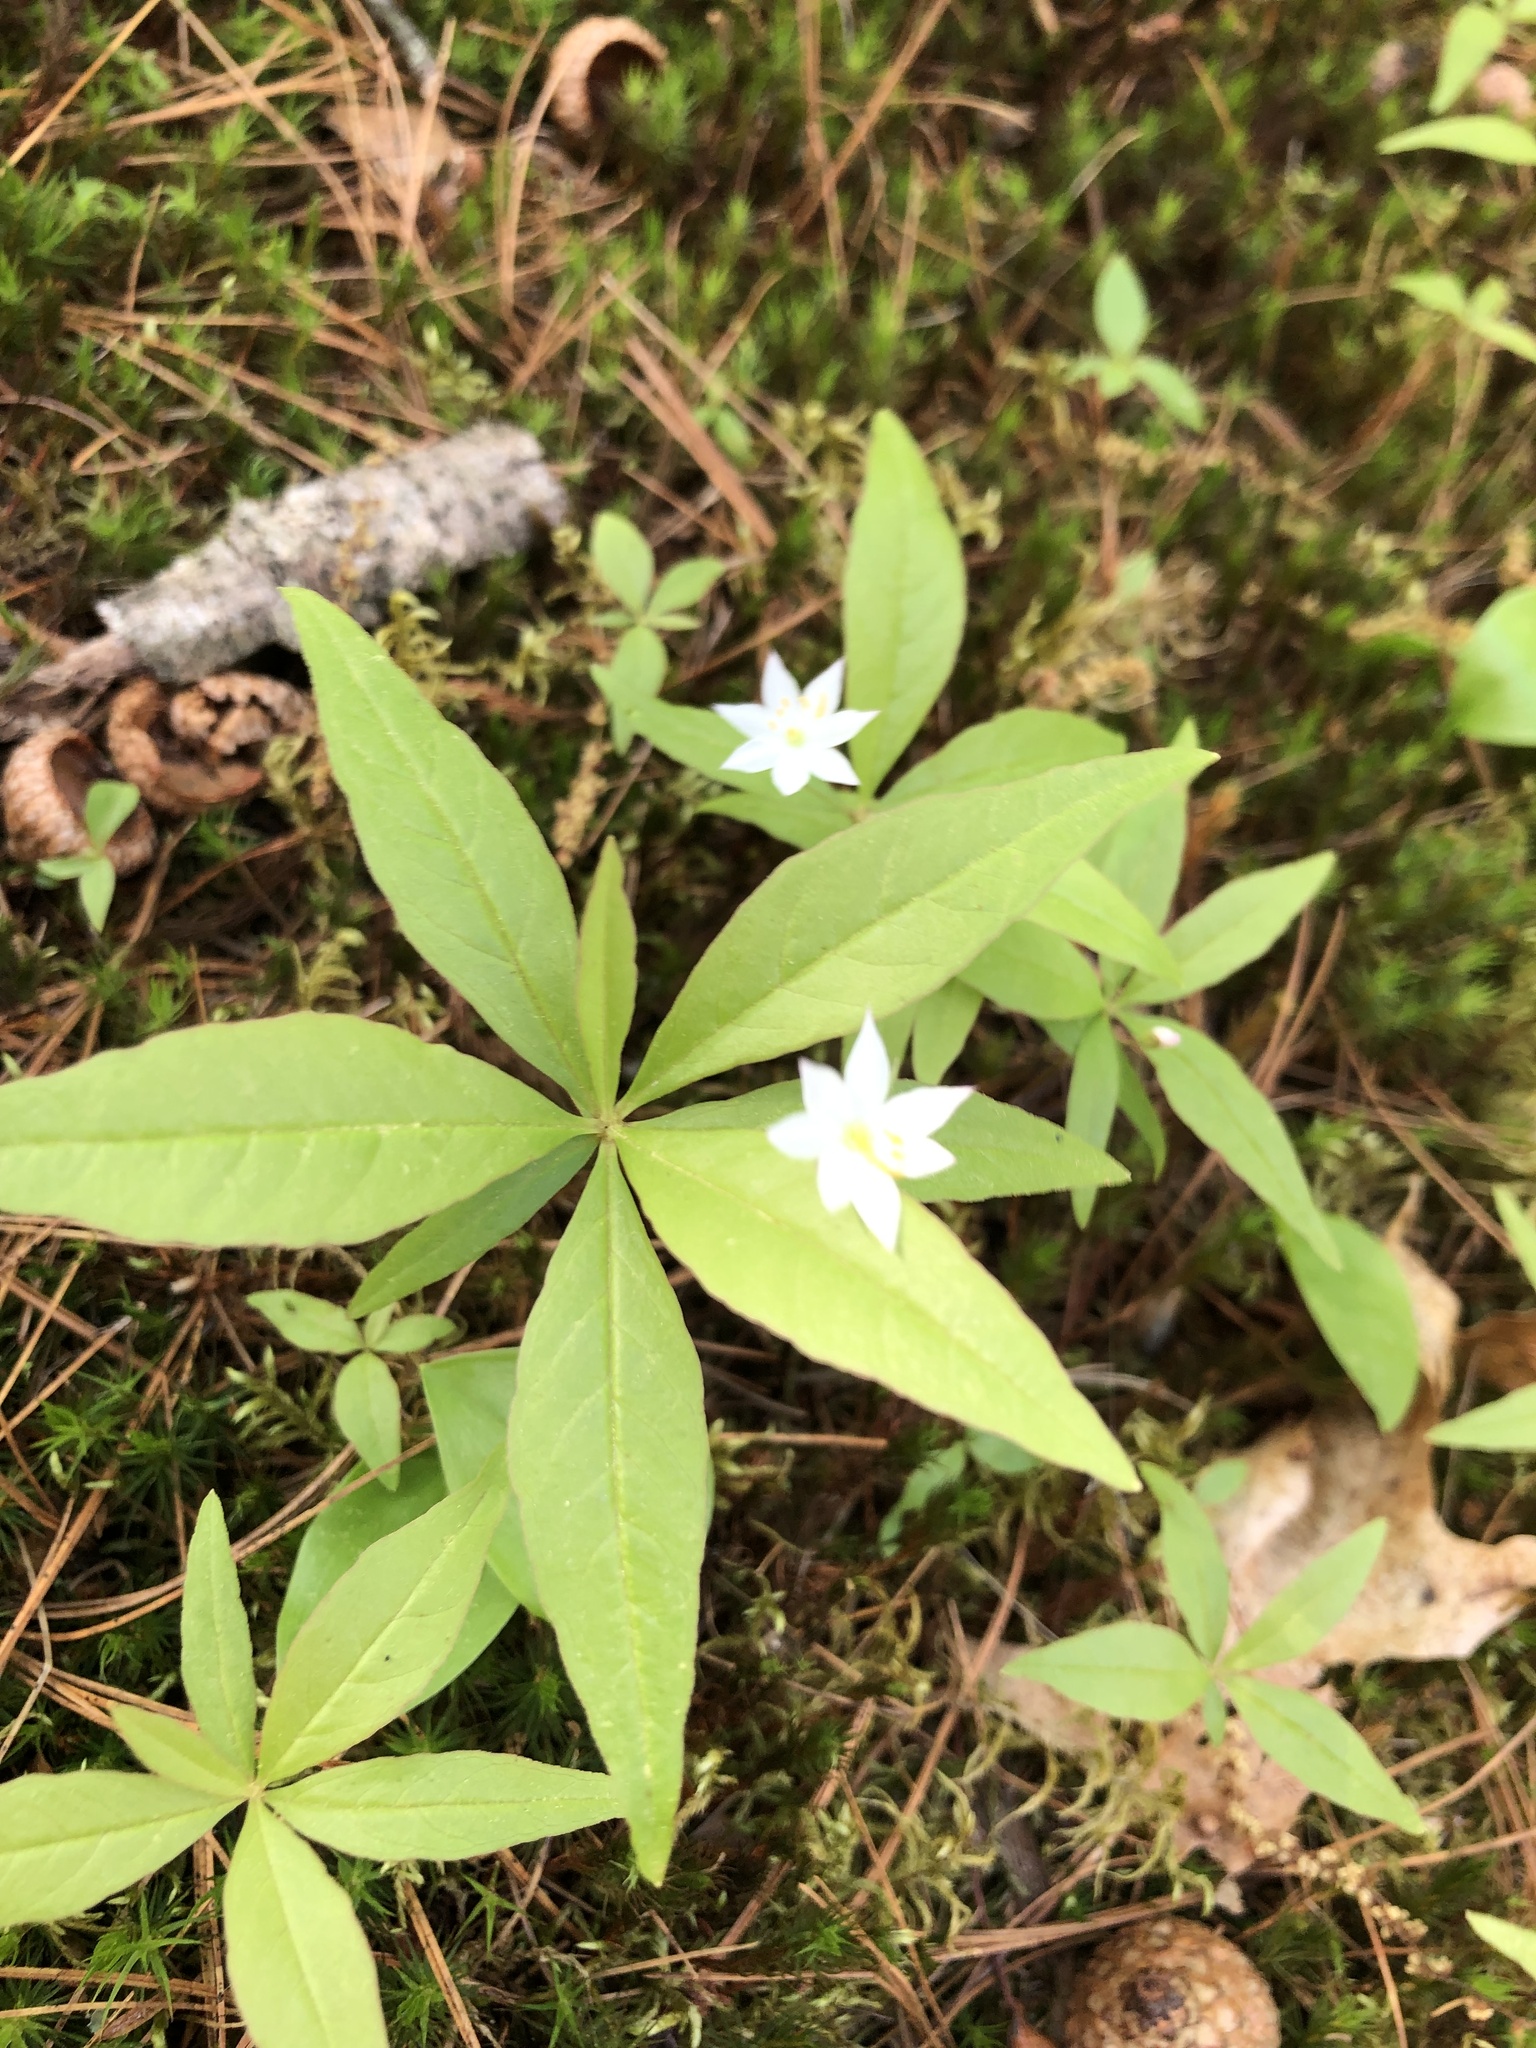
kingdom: Plantae
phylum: Tracheophyta
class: Magnoliopsida
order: Ericales
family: Primulaceae
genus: Lysimachia
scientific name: Lysimachia borealis
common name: American starflower
